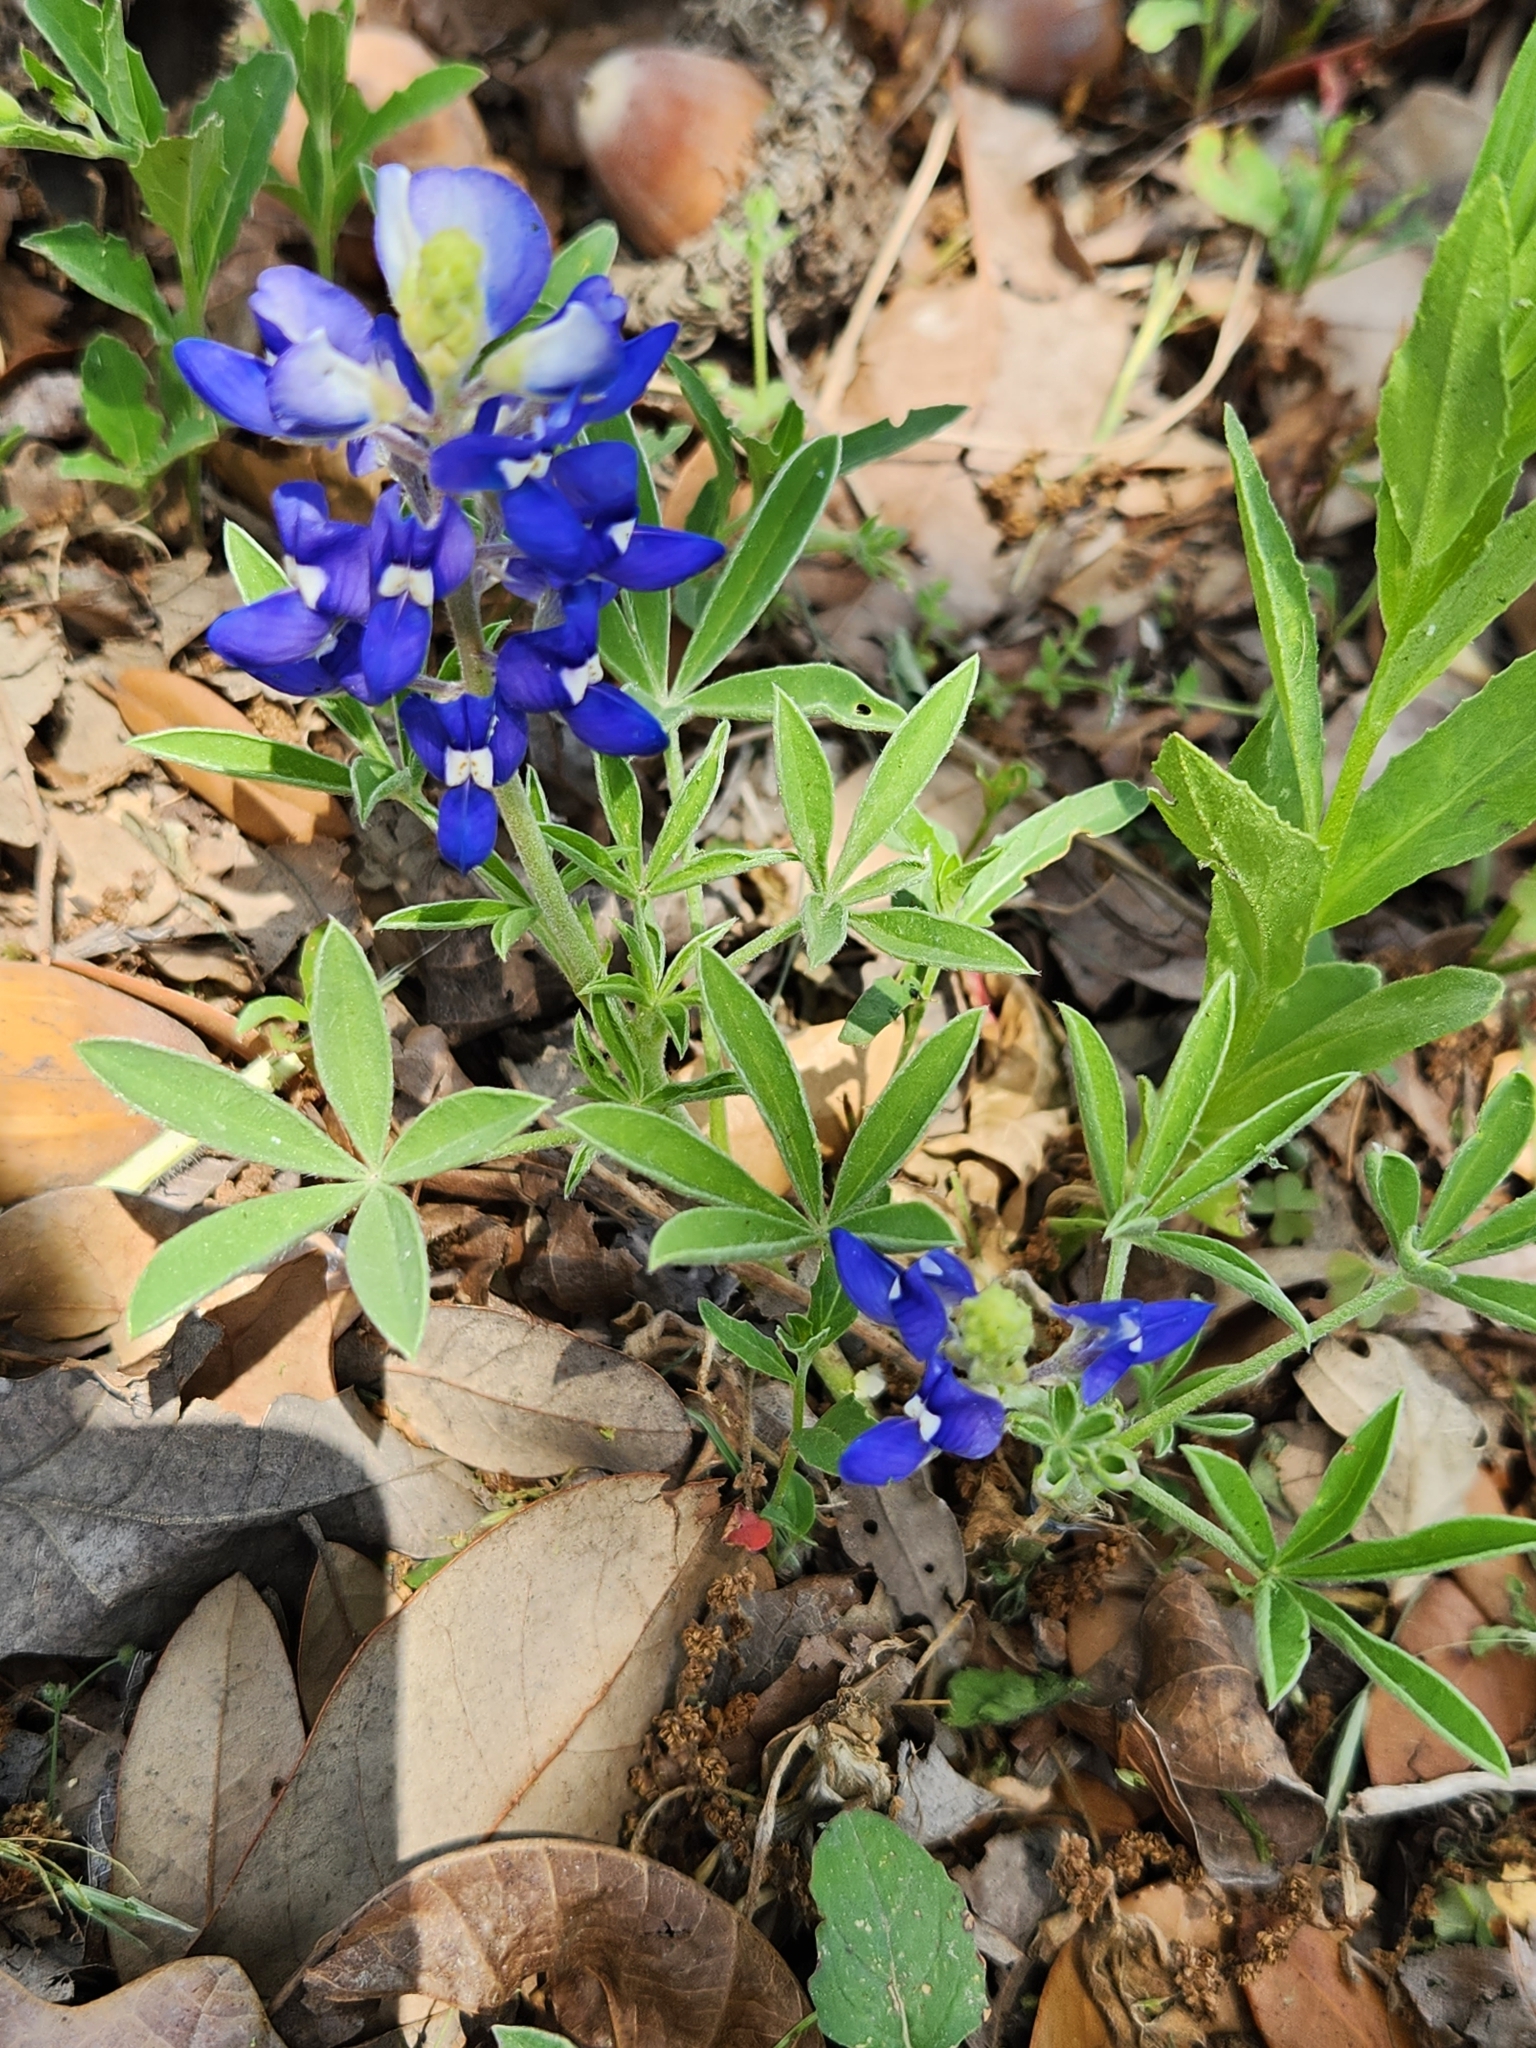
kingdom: Plantae
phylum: Tracheophyta
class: Magnoliopsida
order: Fabales
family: Fabaceae
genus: Lupinus
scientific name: Lupinus texensis
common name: Texas bluebonnet
